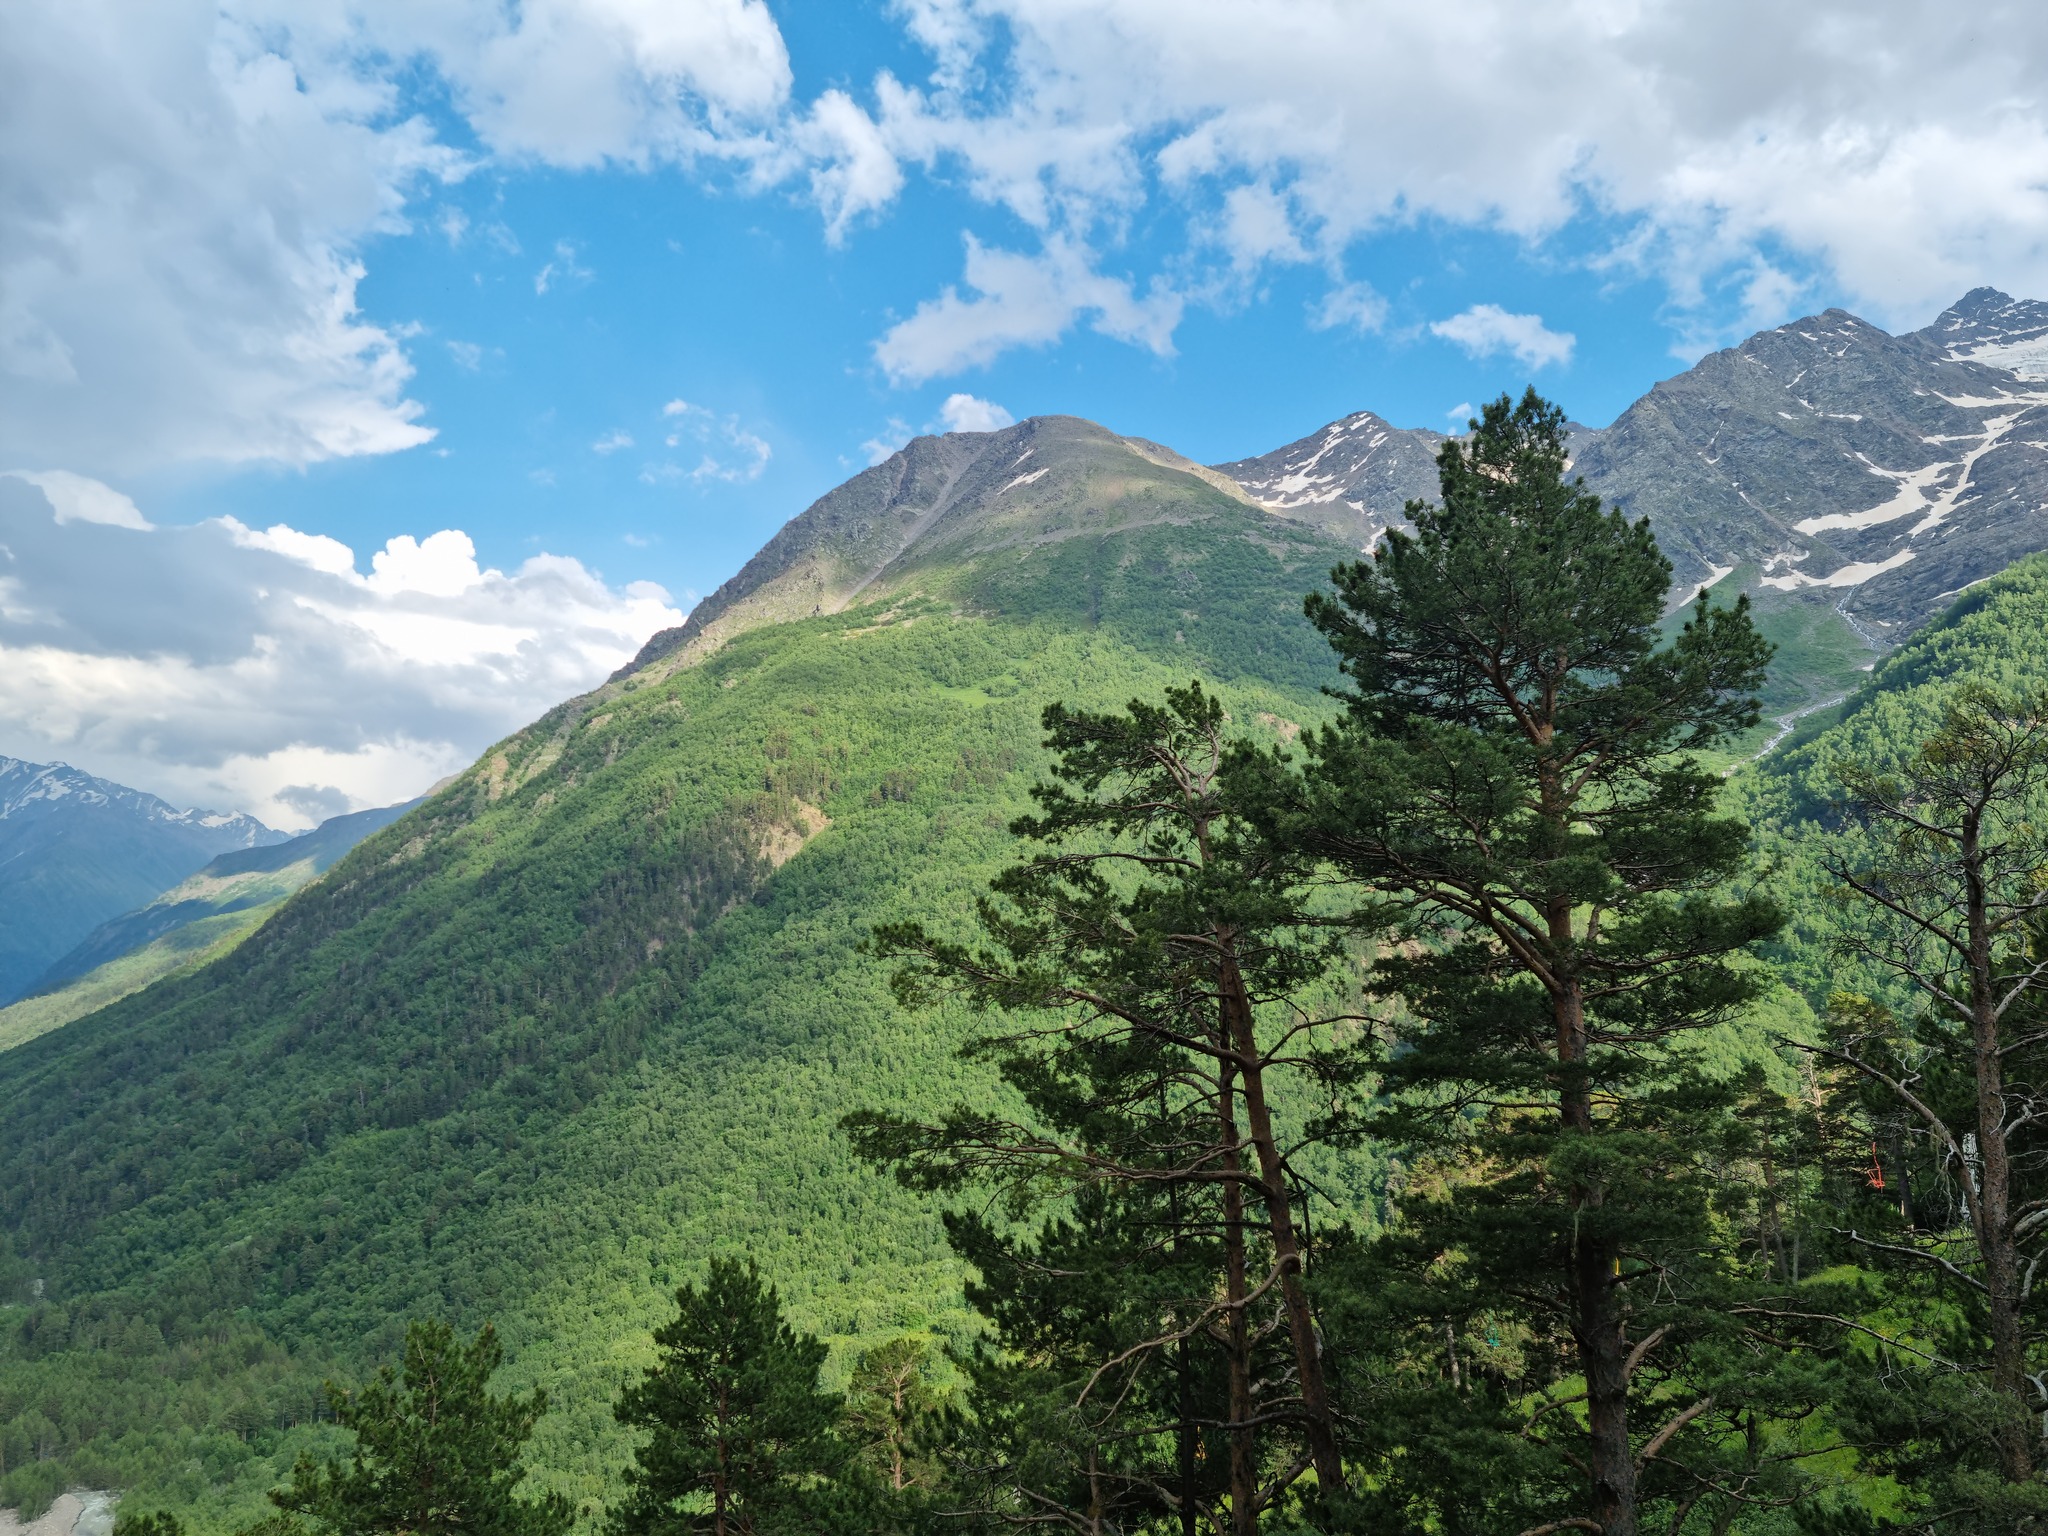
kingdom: Plantae
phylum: Tracheophyta
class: Pinopsida
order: Pinales
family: Pinaceae
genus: Pinus
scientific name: Pinus sylvestris
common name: Scots pine
